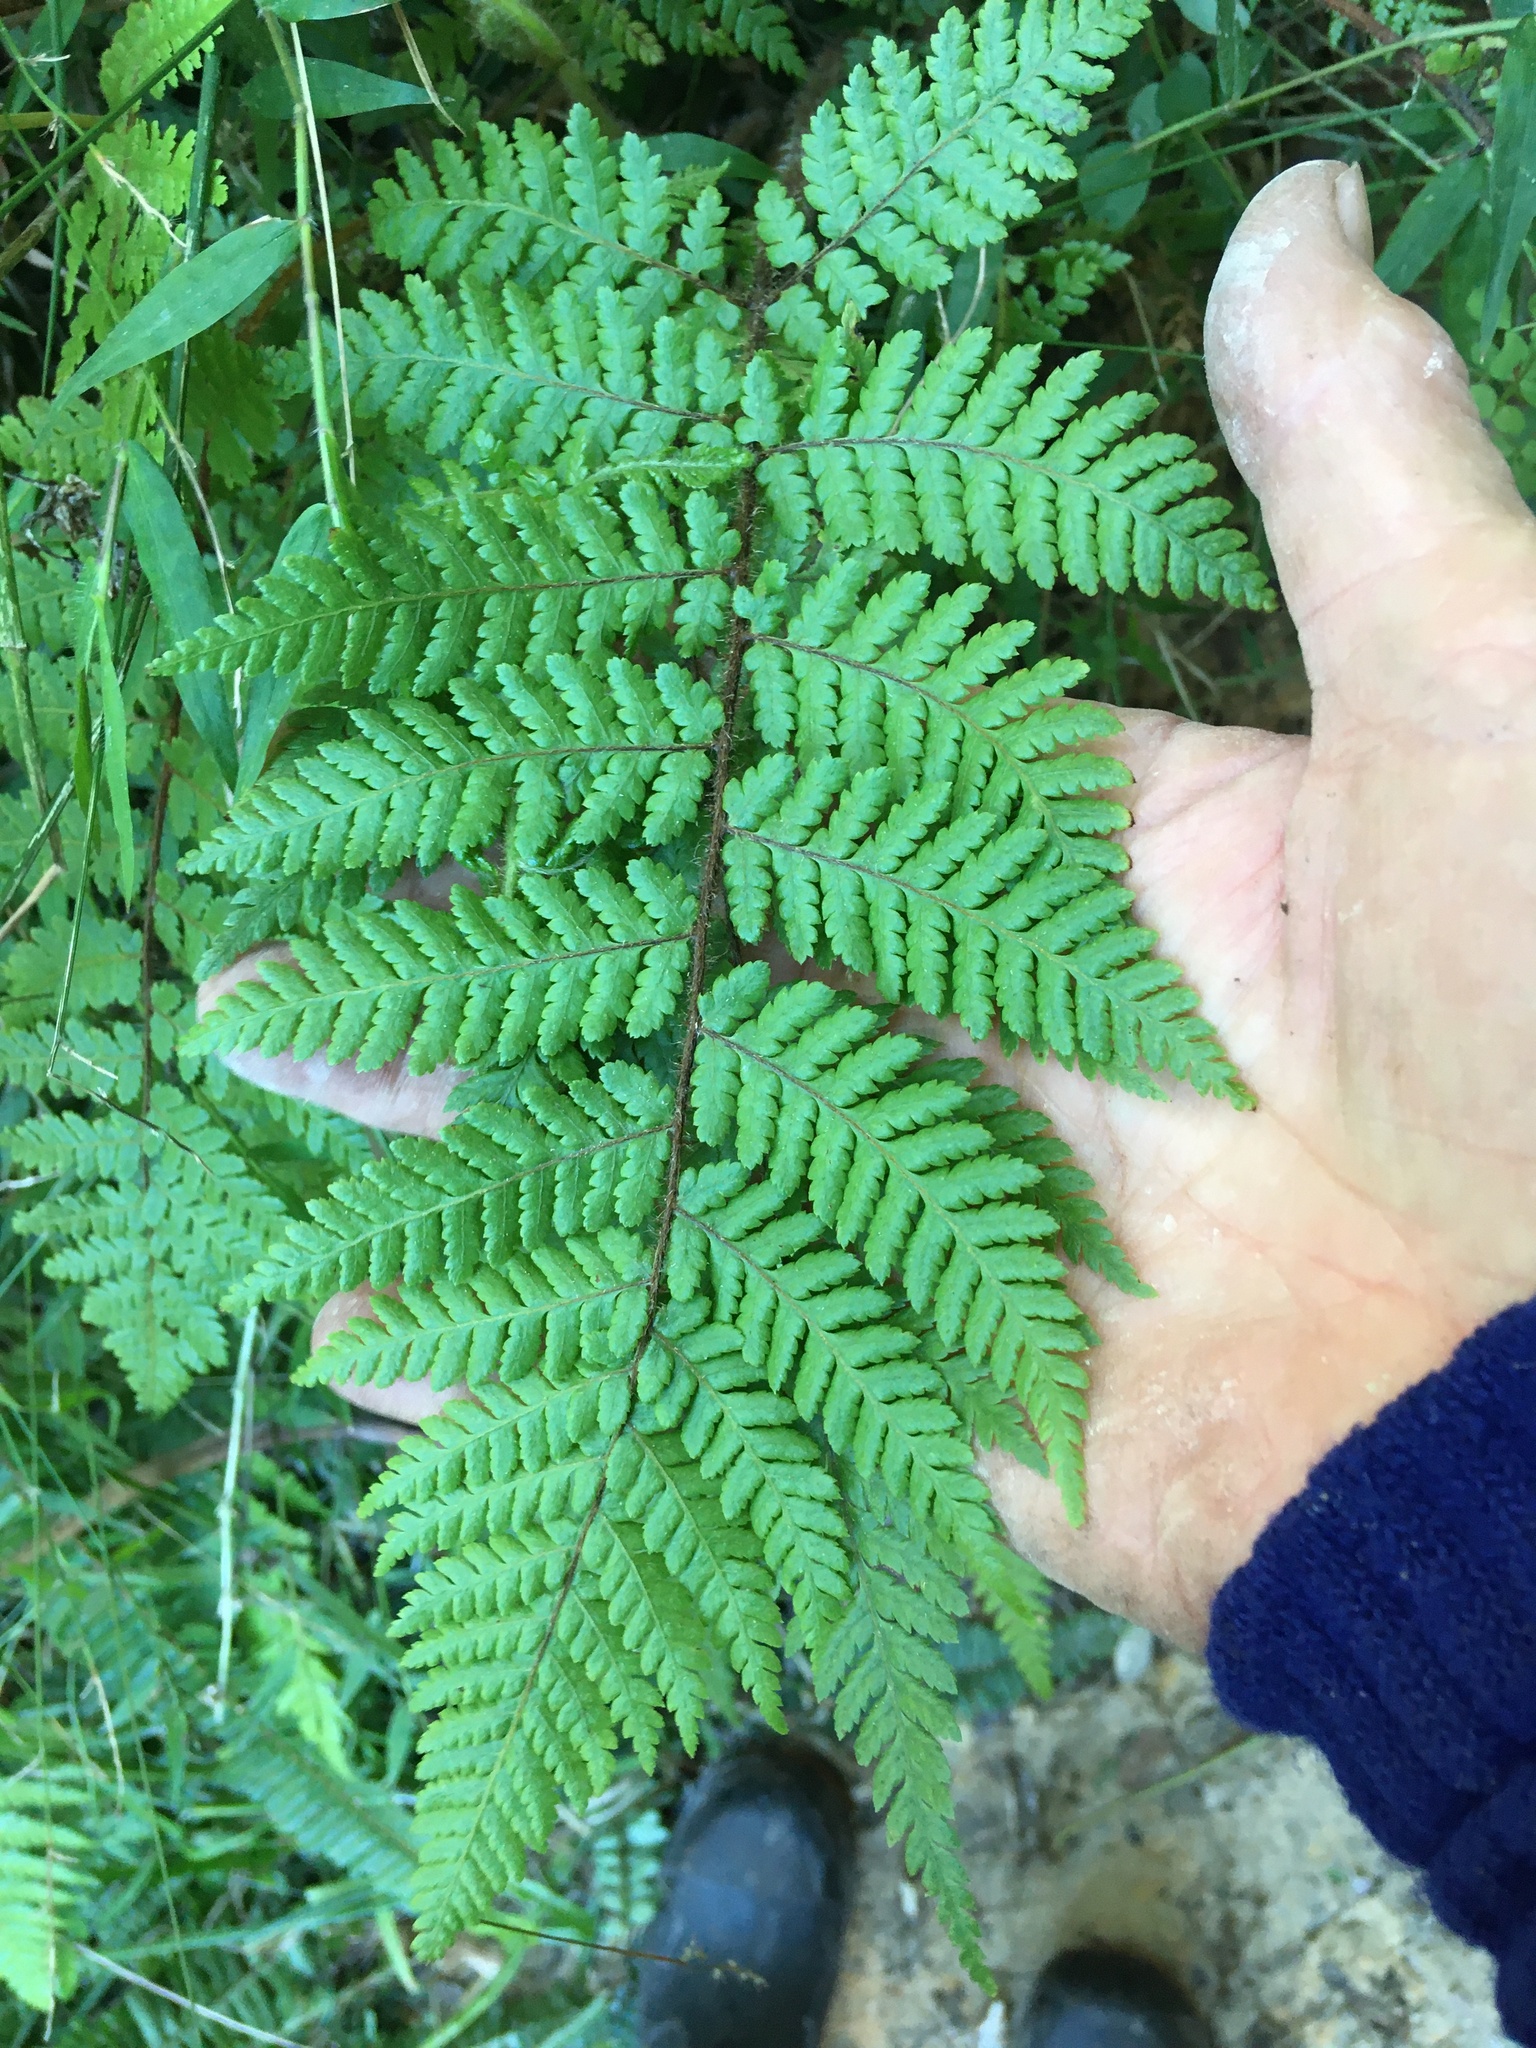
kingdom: Plantae
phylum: Tracheophyta
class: Polypodiopsida
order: Cyatheales
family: Cyatheaceae
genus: Sphaeropteris
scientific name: Sphaeropteris medullaris
